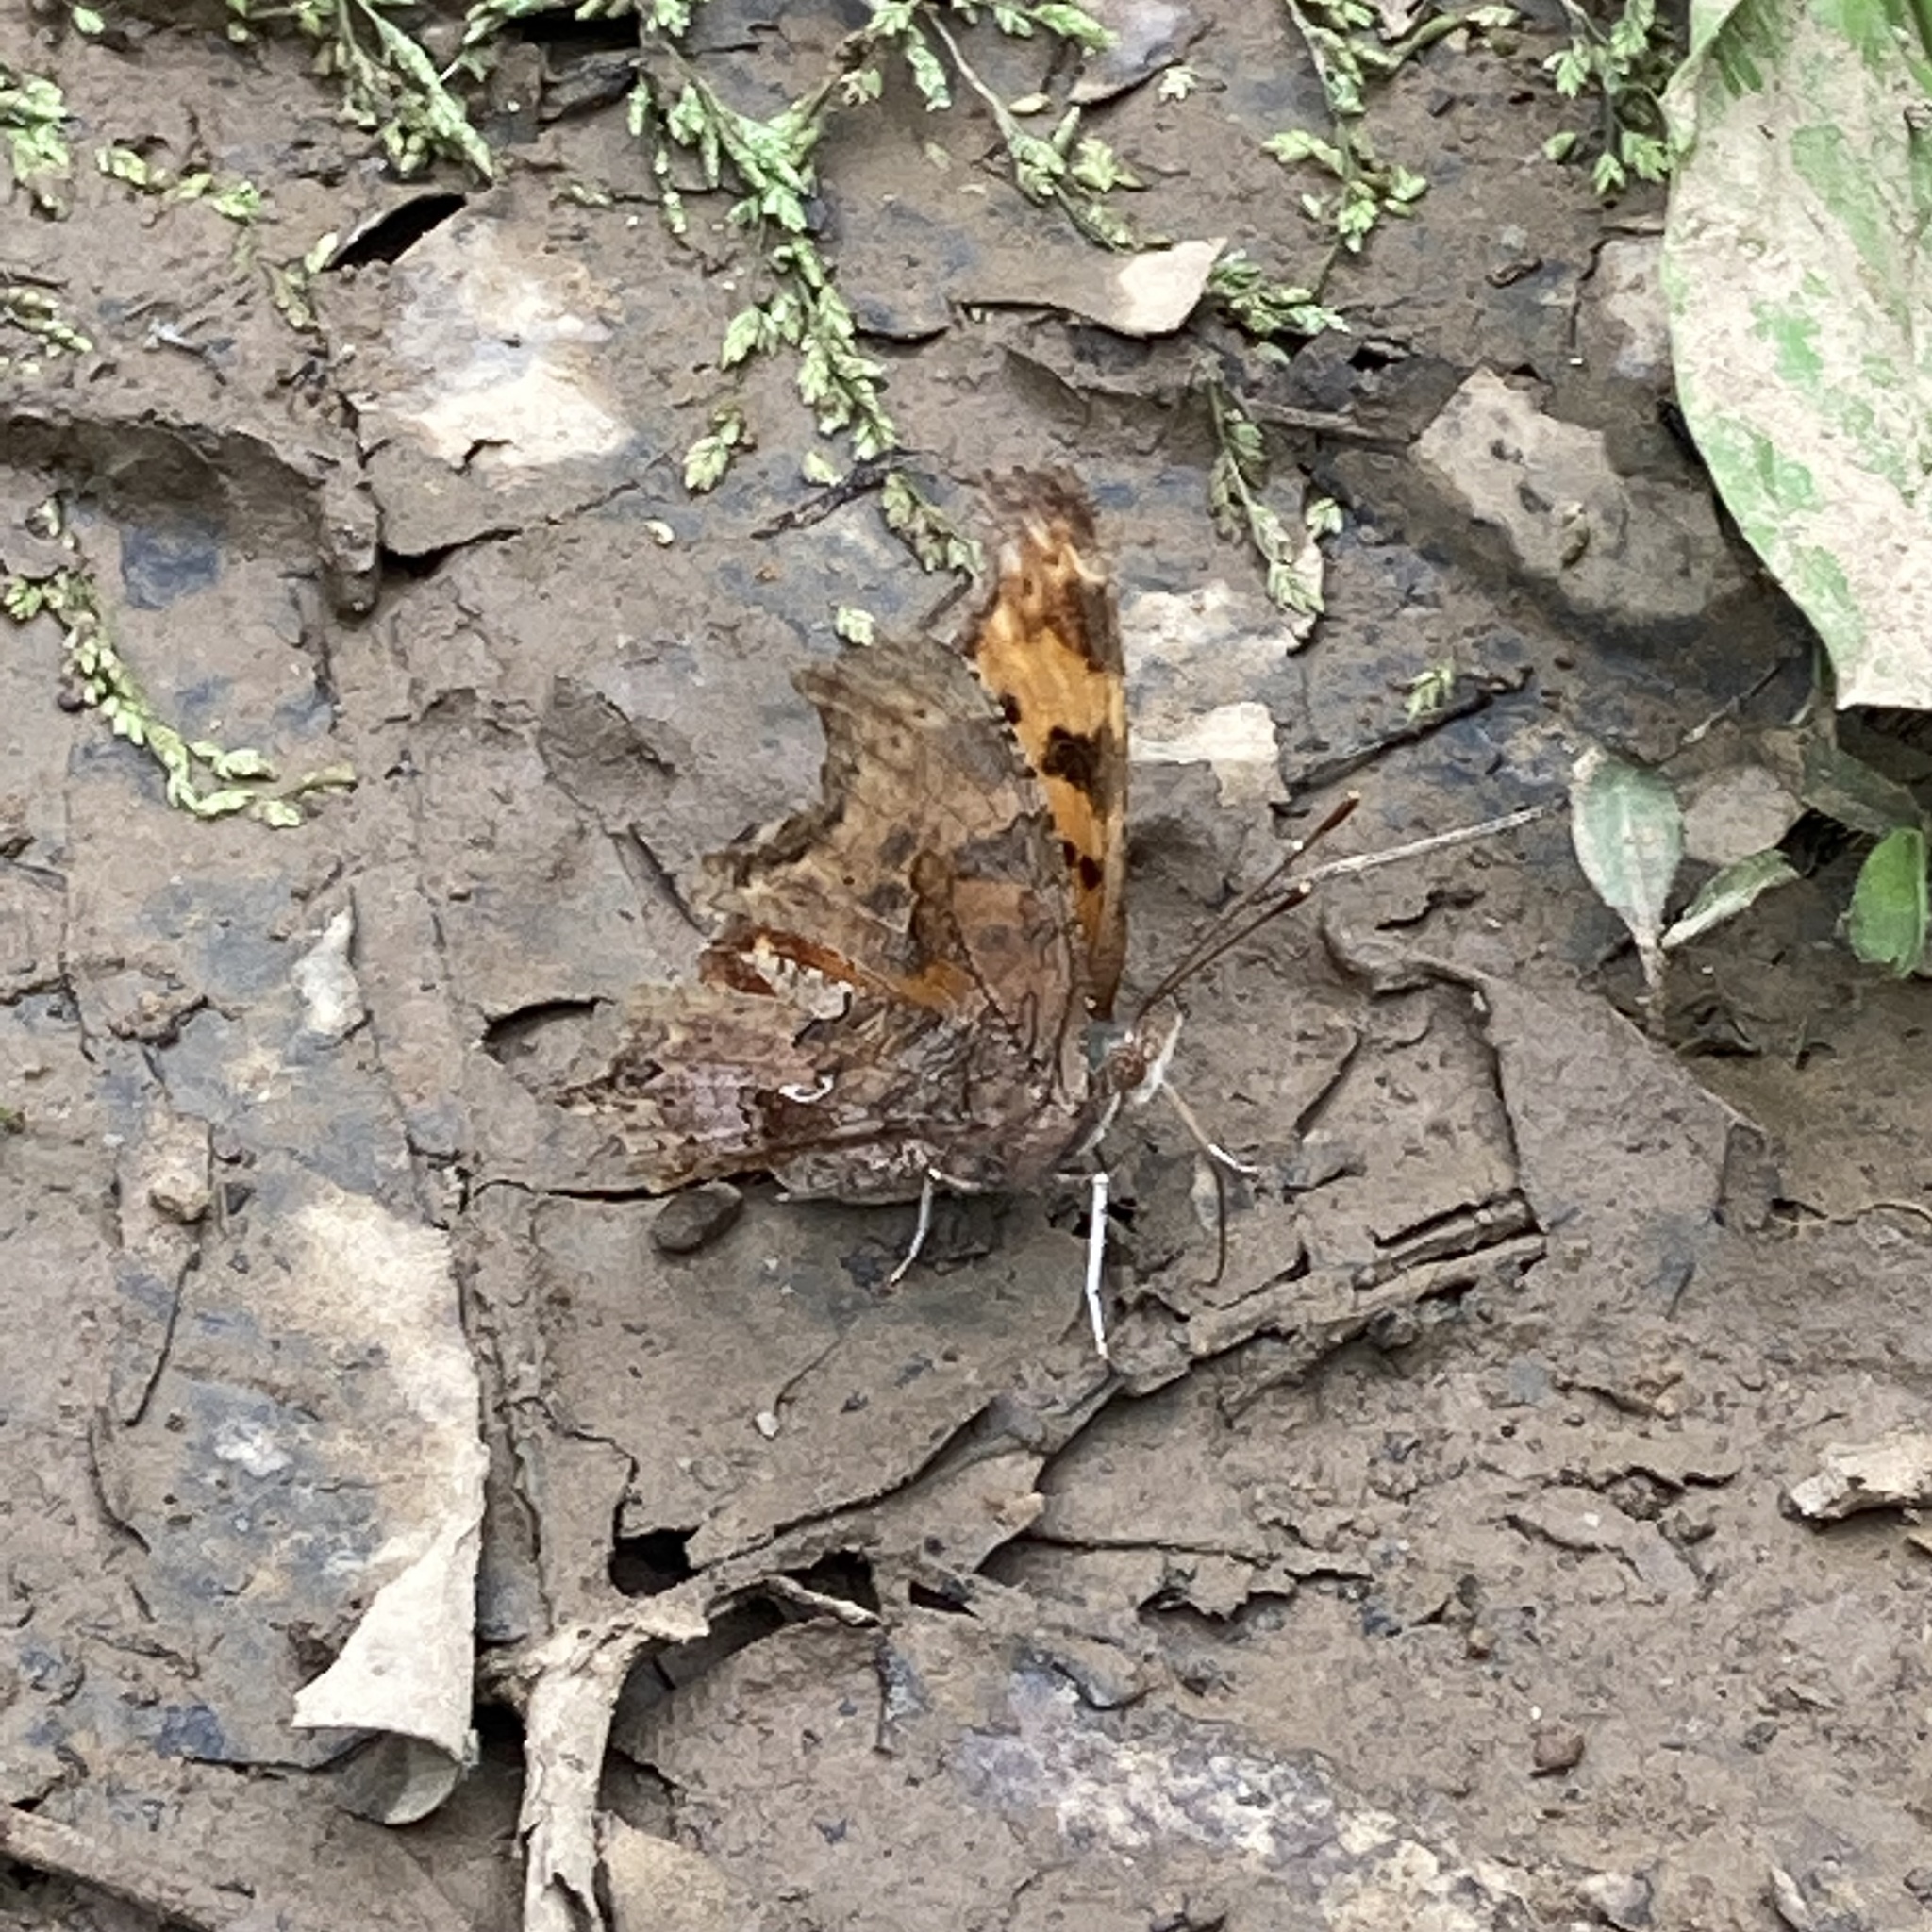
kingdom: Animalia
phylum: Arthropoda
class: Insecta
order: Lepidoptera
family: Nymphalidae
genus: Polygonia
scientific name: Polygonia comma
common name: Eastern comma
